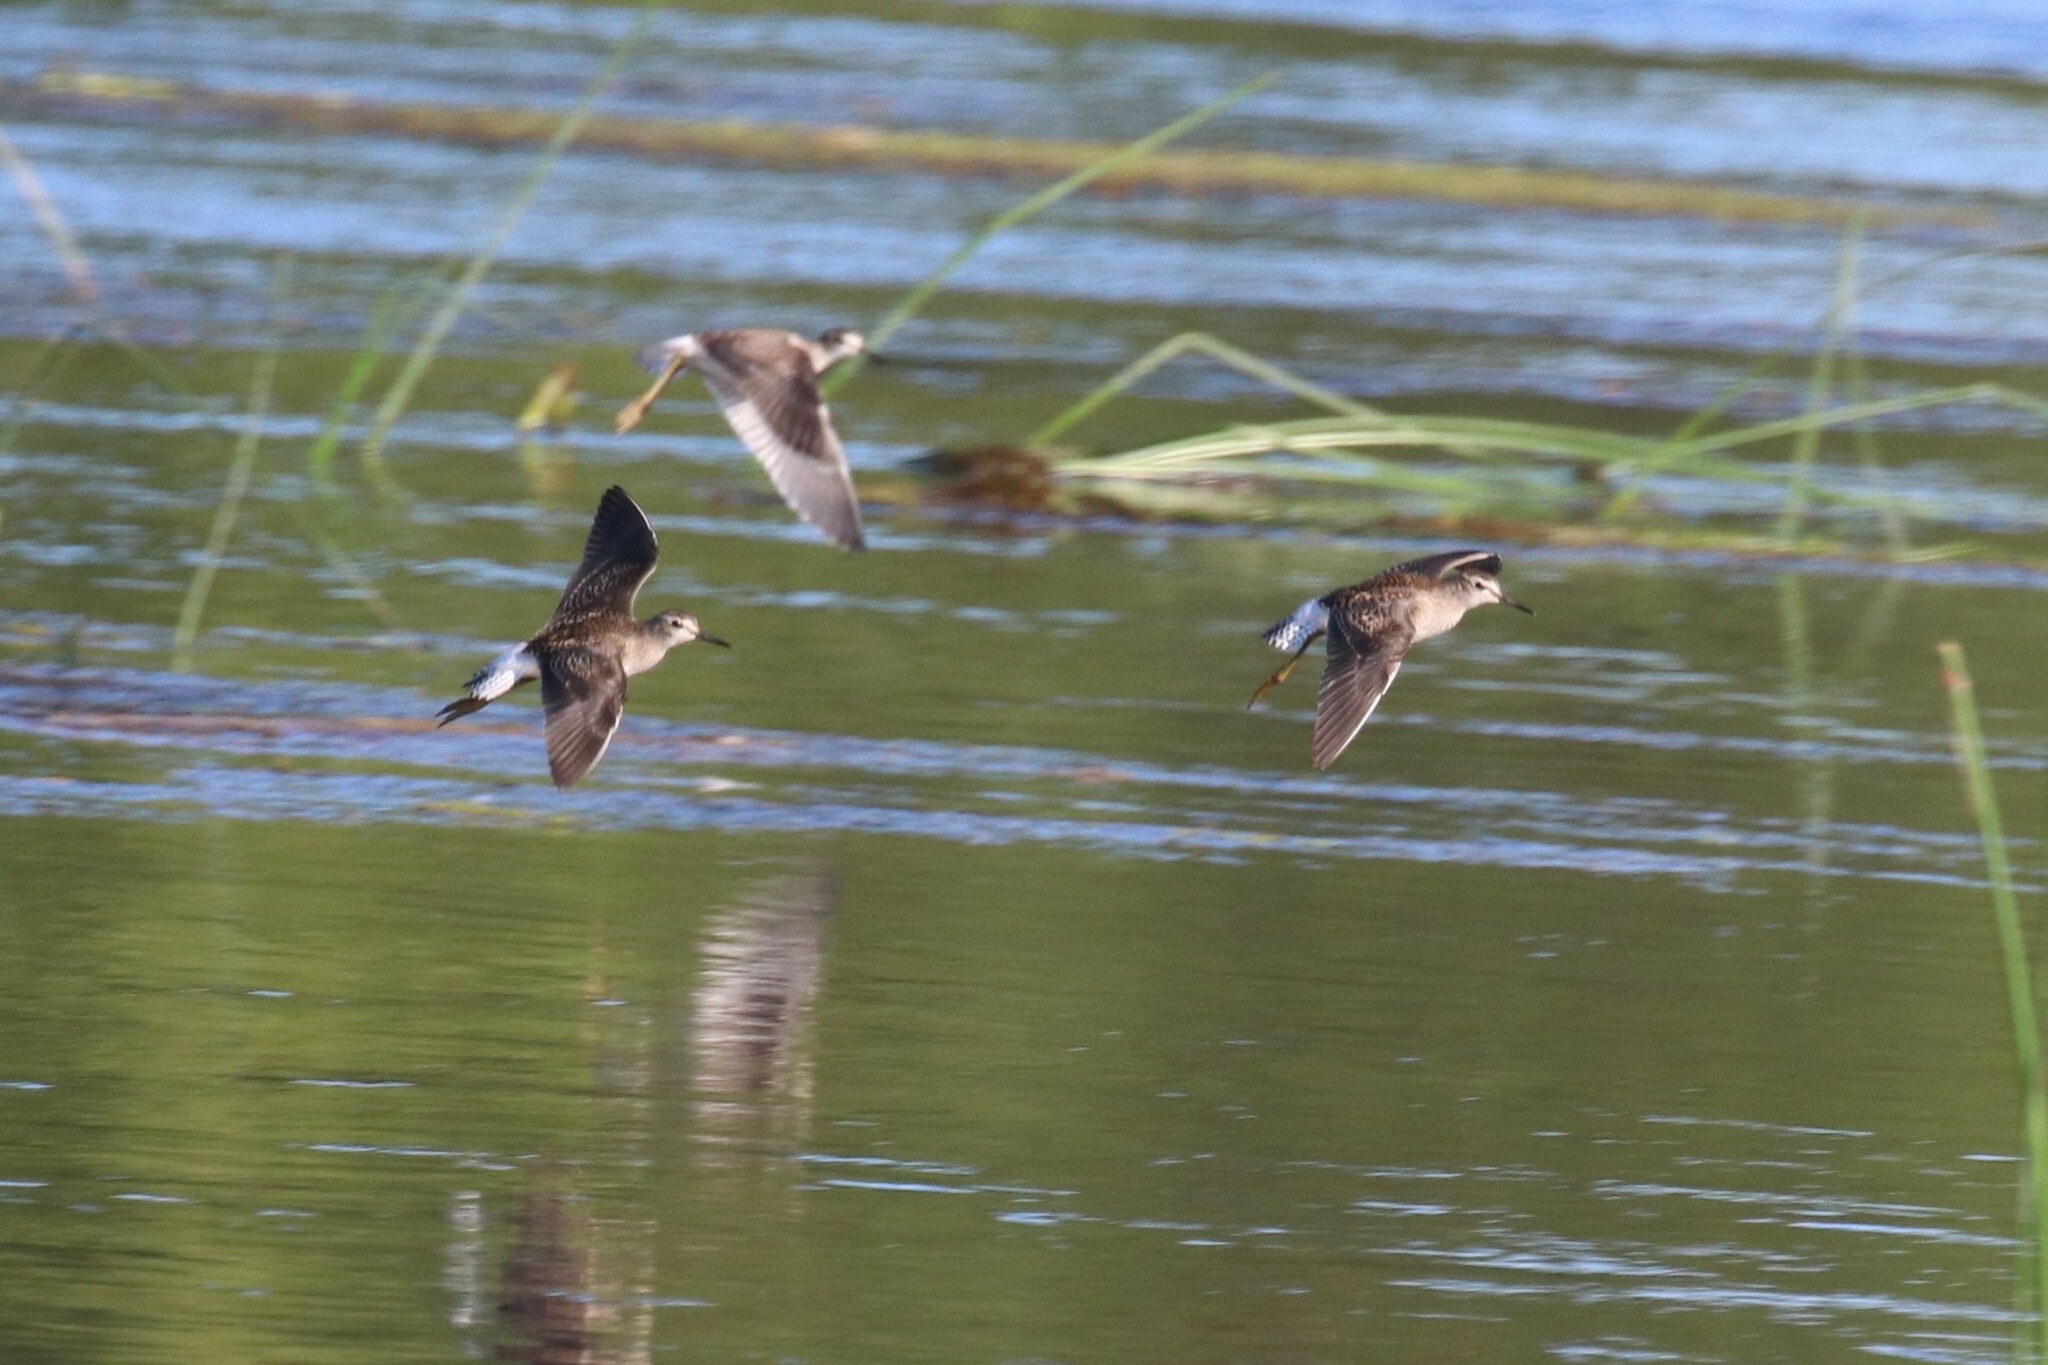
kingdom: Animalia
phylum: Chordata
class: Aves
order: Charadriiformes
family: Scolopacidae
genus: Tringa
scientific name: Tringa glareola
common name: Wood sandpiper
